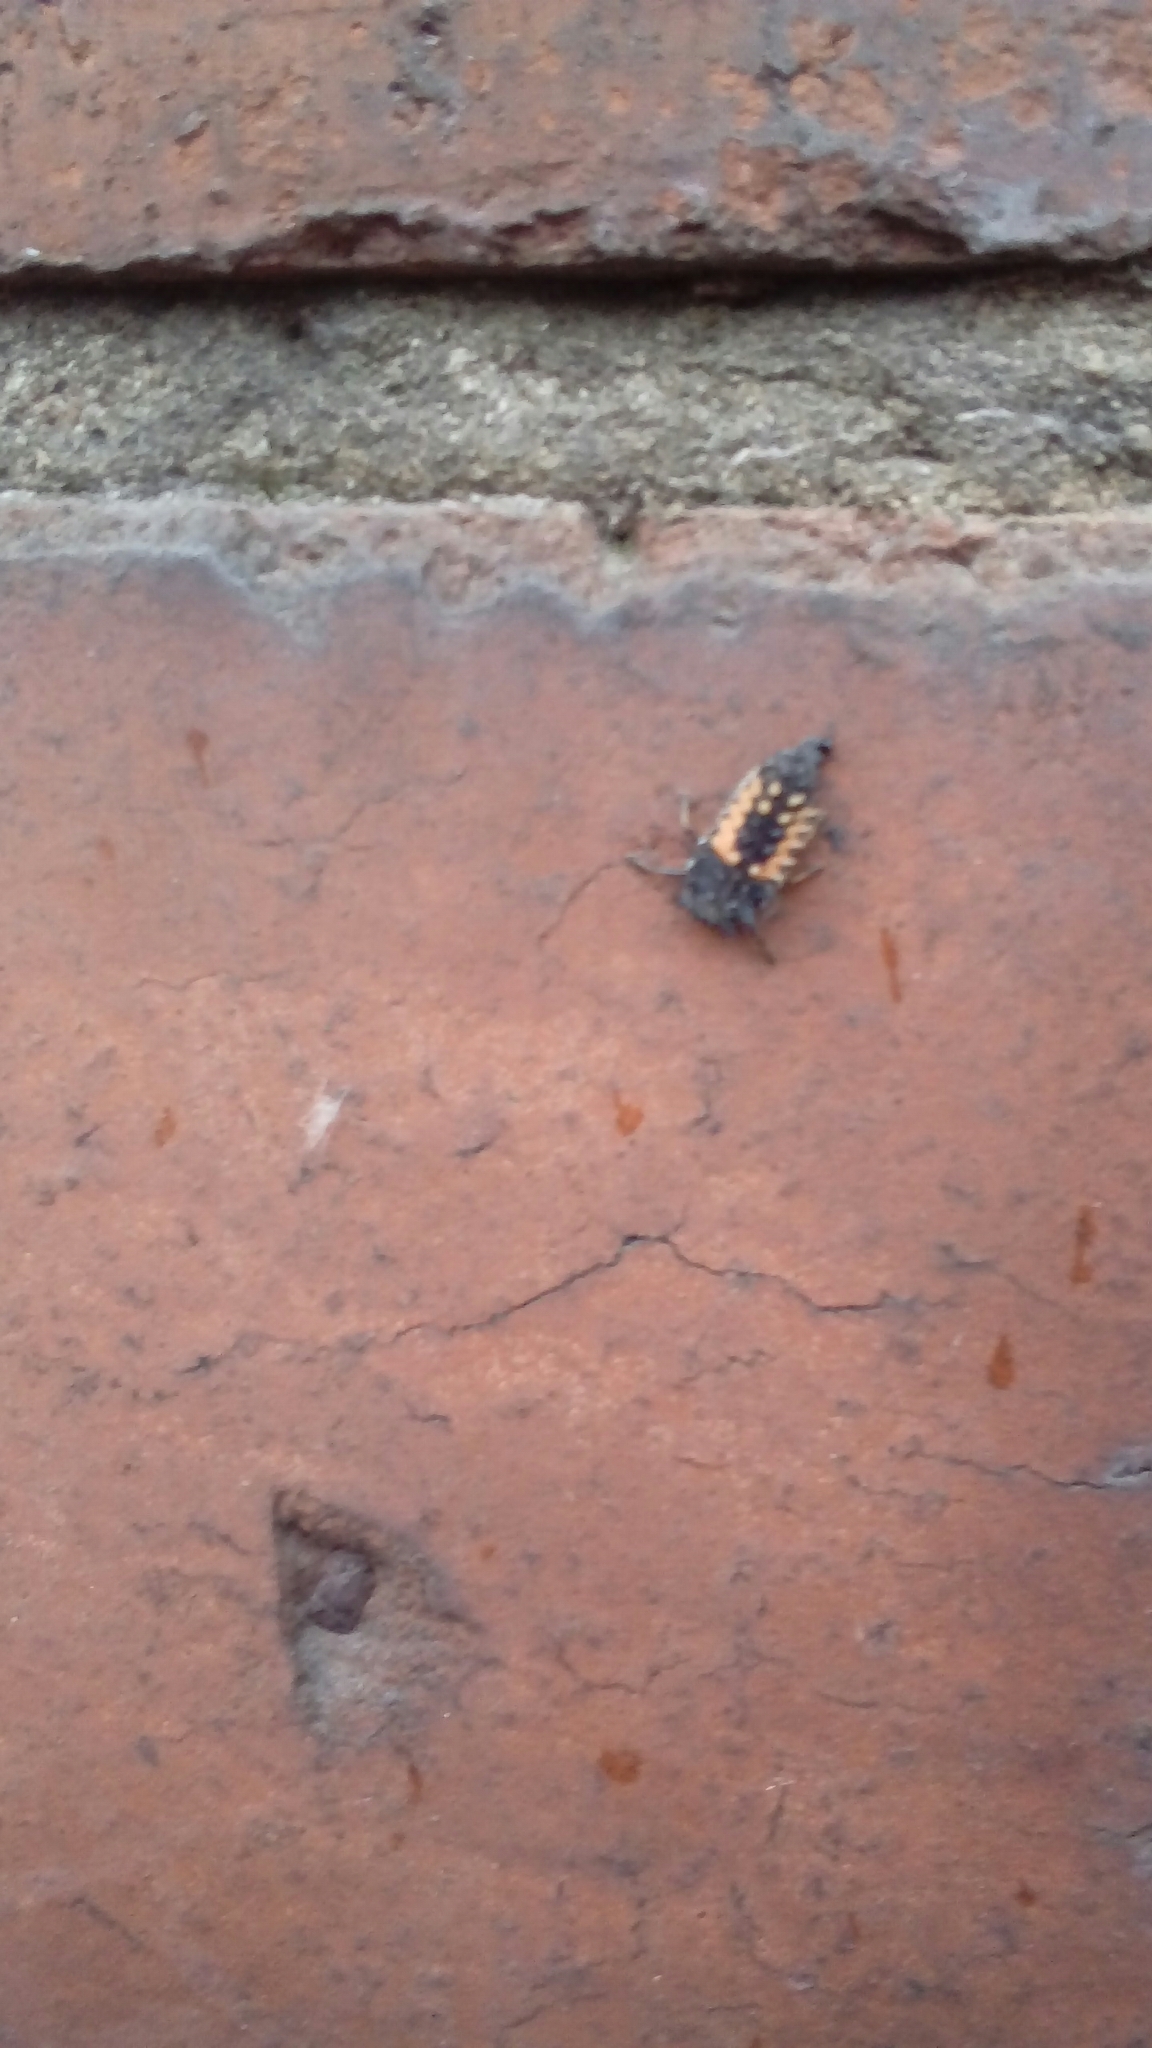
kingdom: Animalia
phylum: Arthropoda
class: Insecta
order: Coleoptera
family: Coccinellidae
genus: Harmonia
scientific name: Harmonia axyridis
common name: Harlequin ladybird
